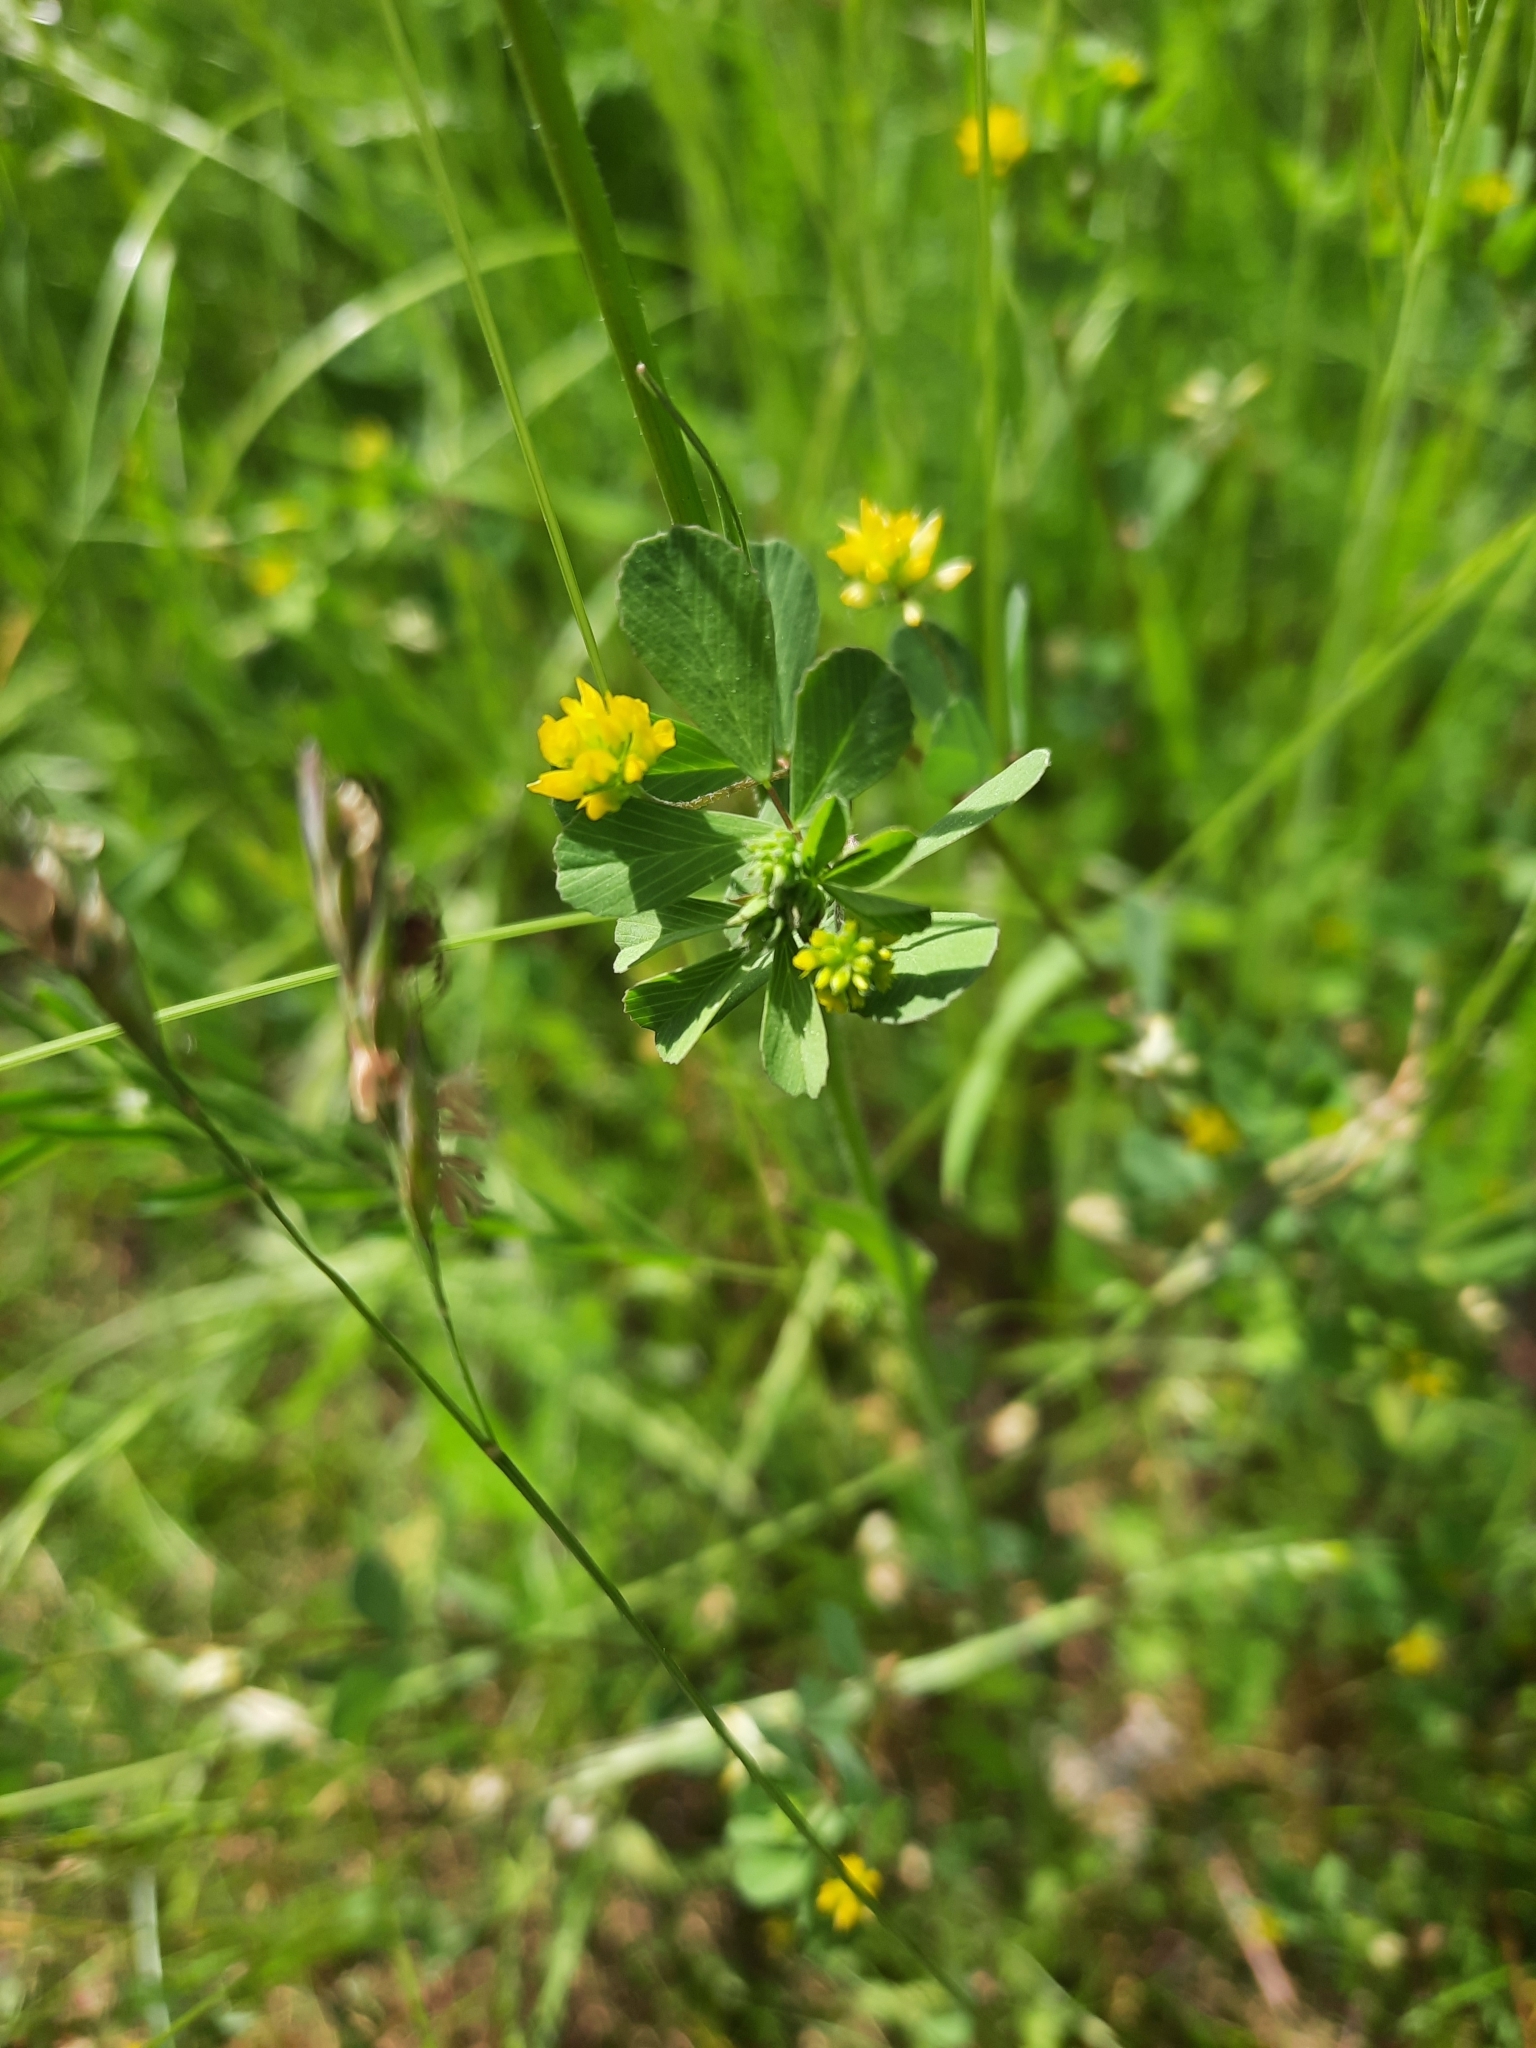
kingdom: Plantae
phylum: Tracheophyta
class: Magnoliopsida
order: Fabales
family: Fabaceae
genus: Trifolium
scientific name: Trifolium dubium
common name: Suckling clover
